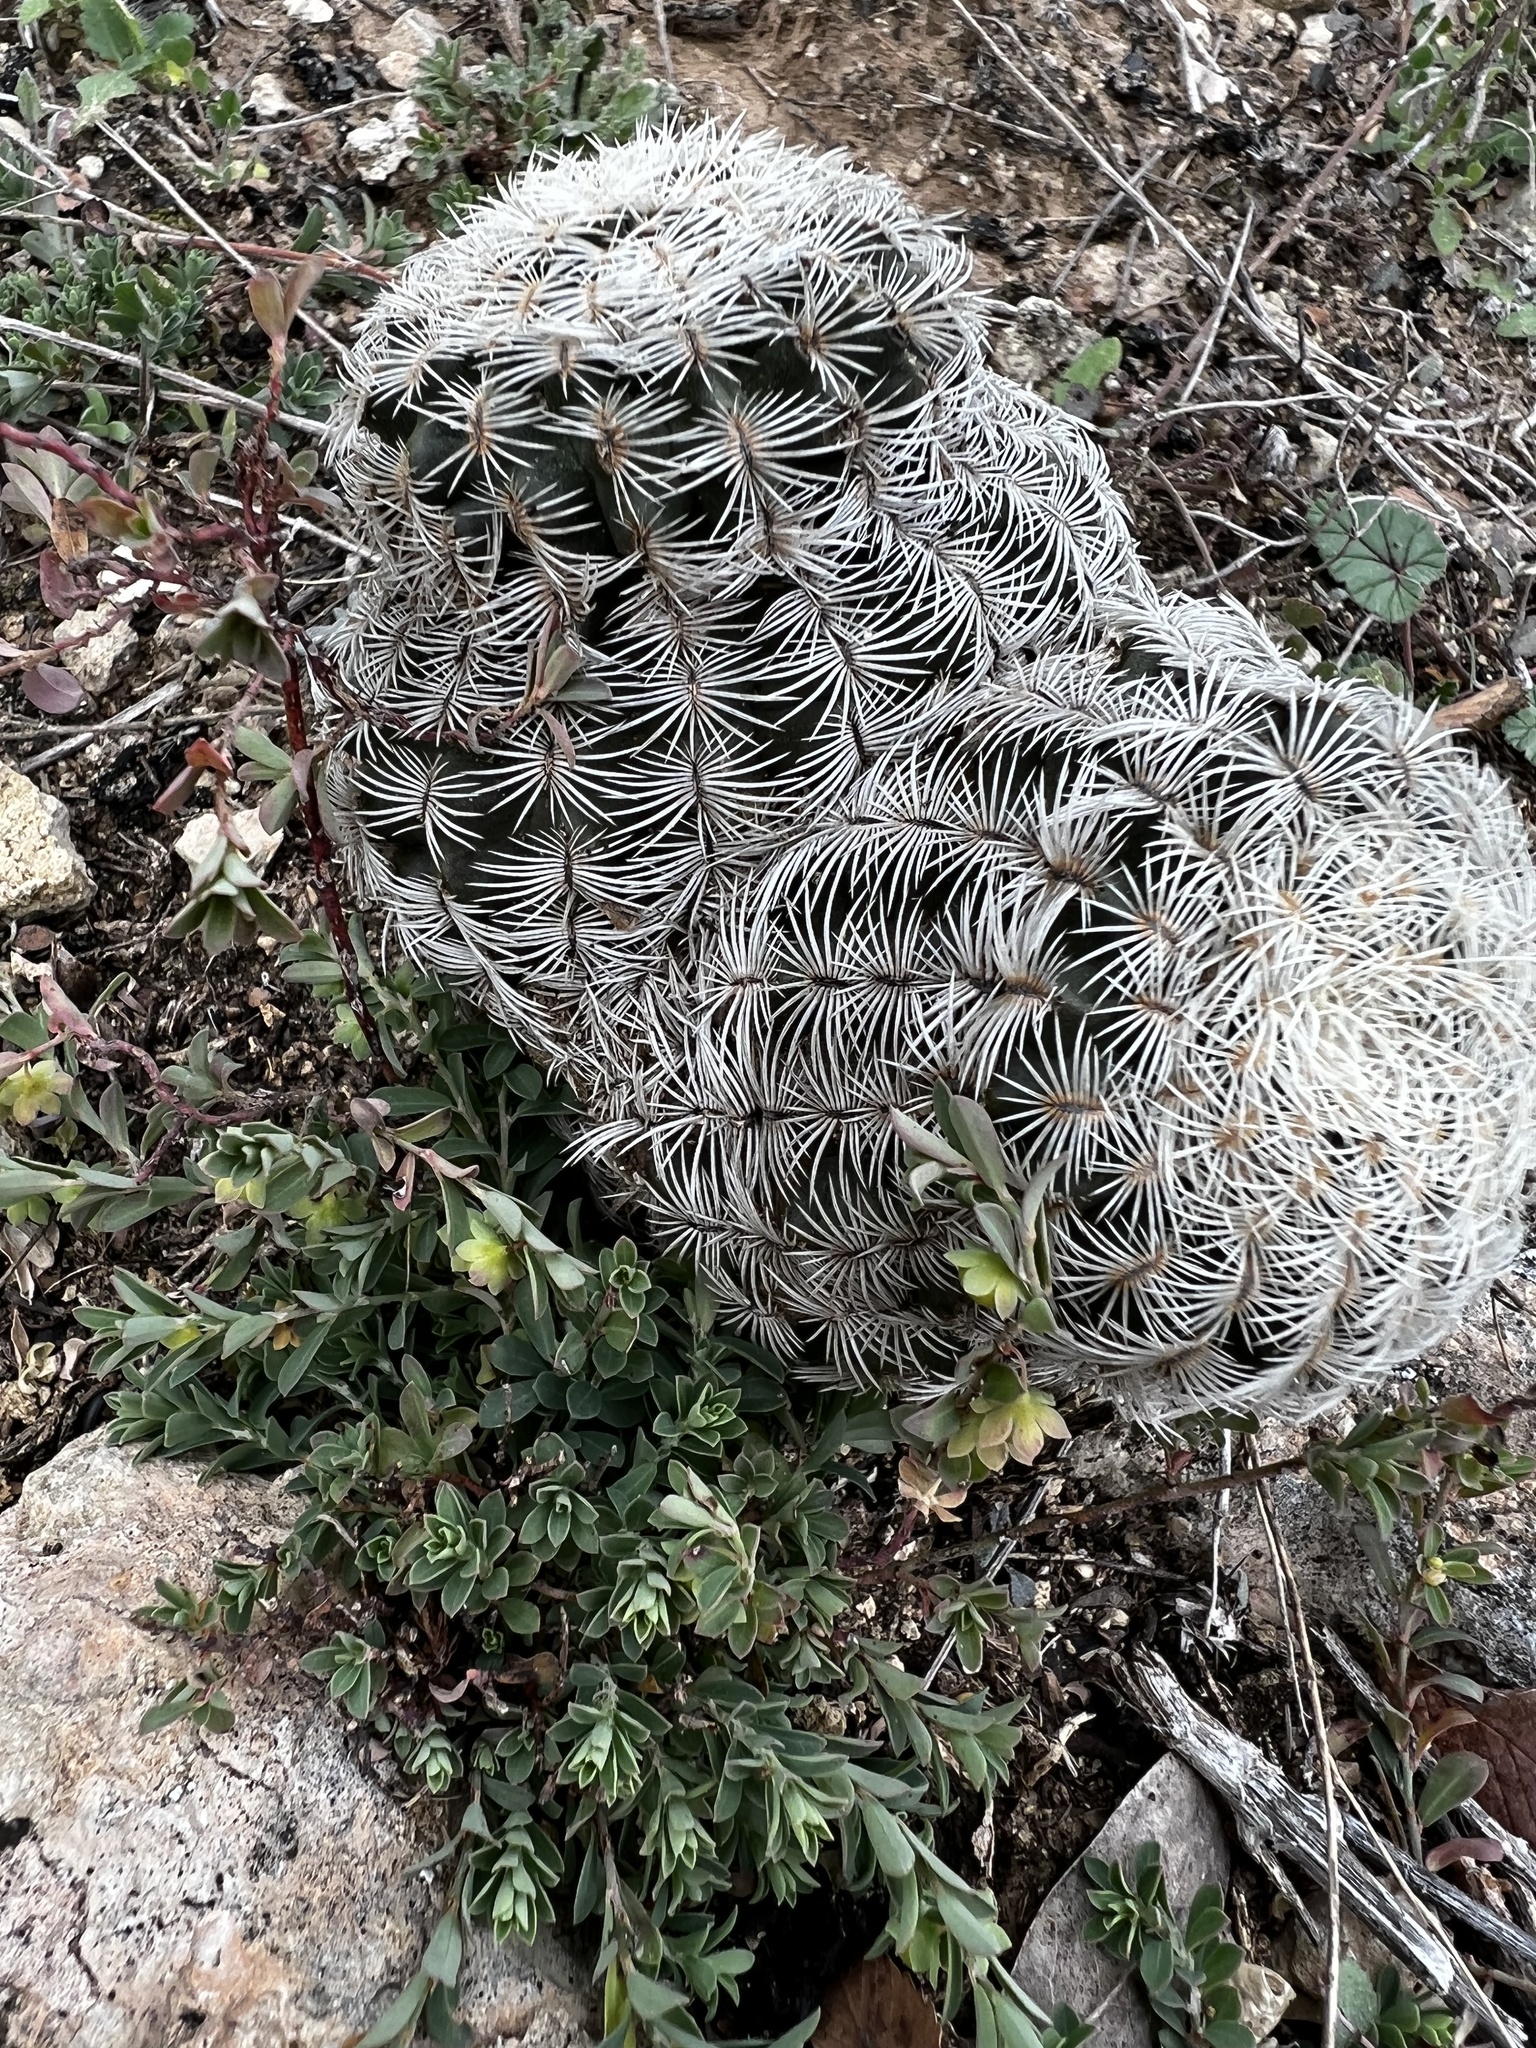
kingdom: Plantae
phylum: Tracheophyta
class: Magnoliopsida
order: Caryophyllales
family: Cactaceae
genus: Echinocereus
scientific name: Echinocereus reichenbachii
